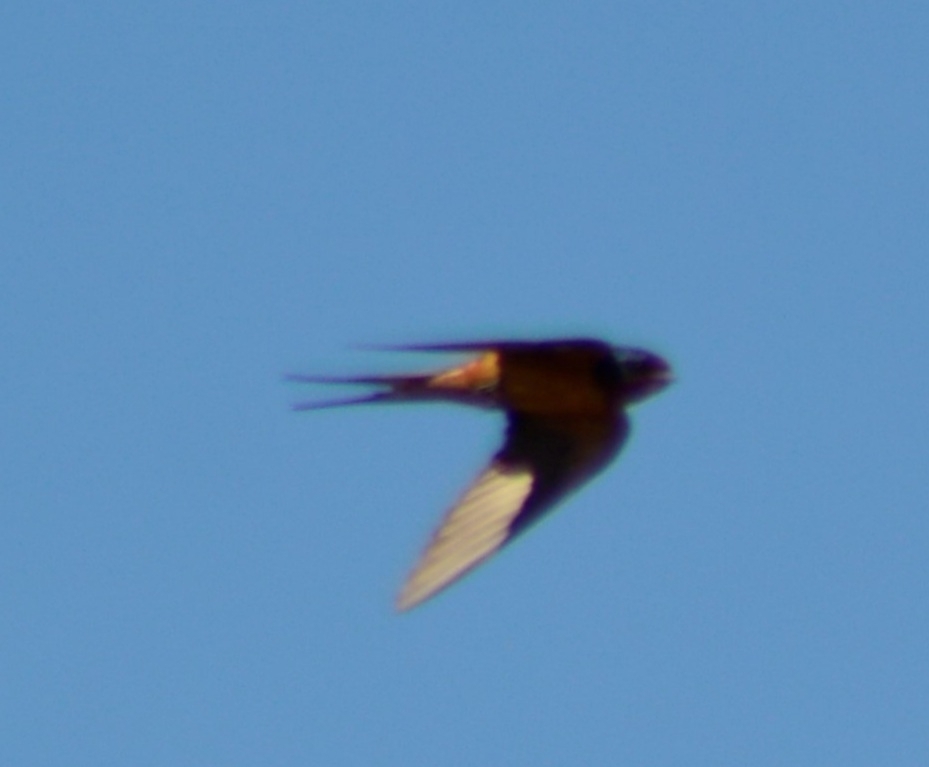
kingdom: Animalia
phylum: Chordata
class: Aves
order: Passeriformes
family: Hirundinidae
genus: Hirundo
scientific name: Hirundo rustica
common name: Barn swallow
